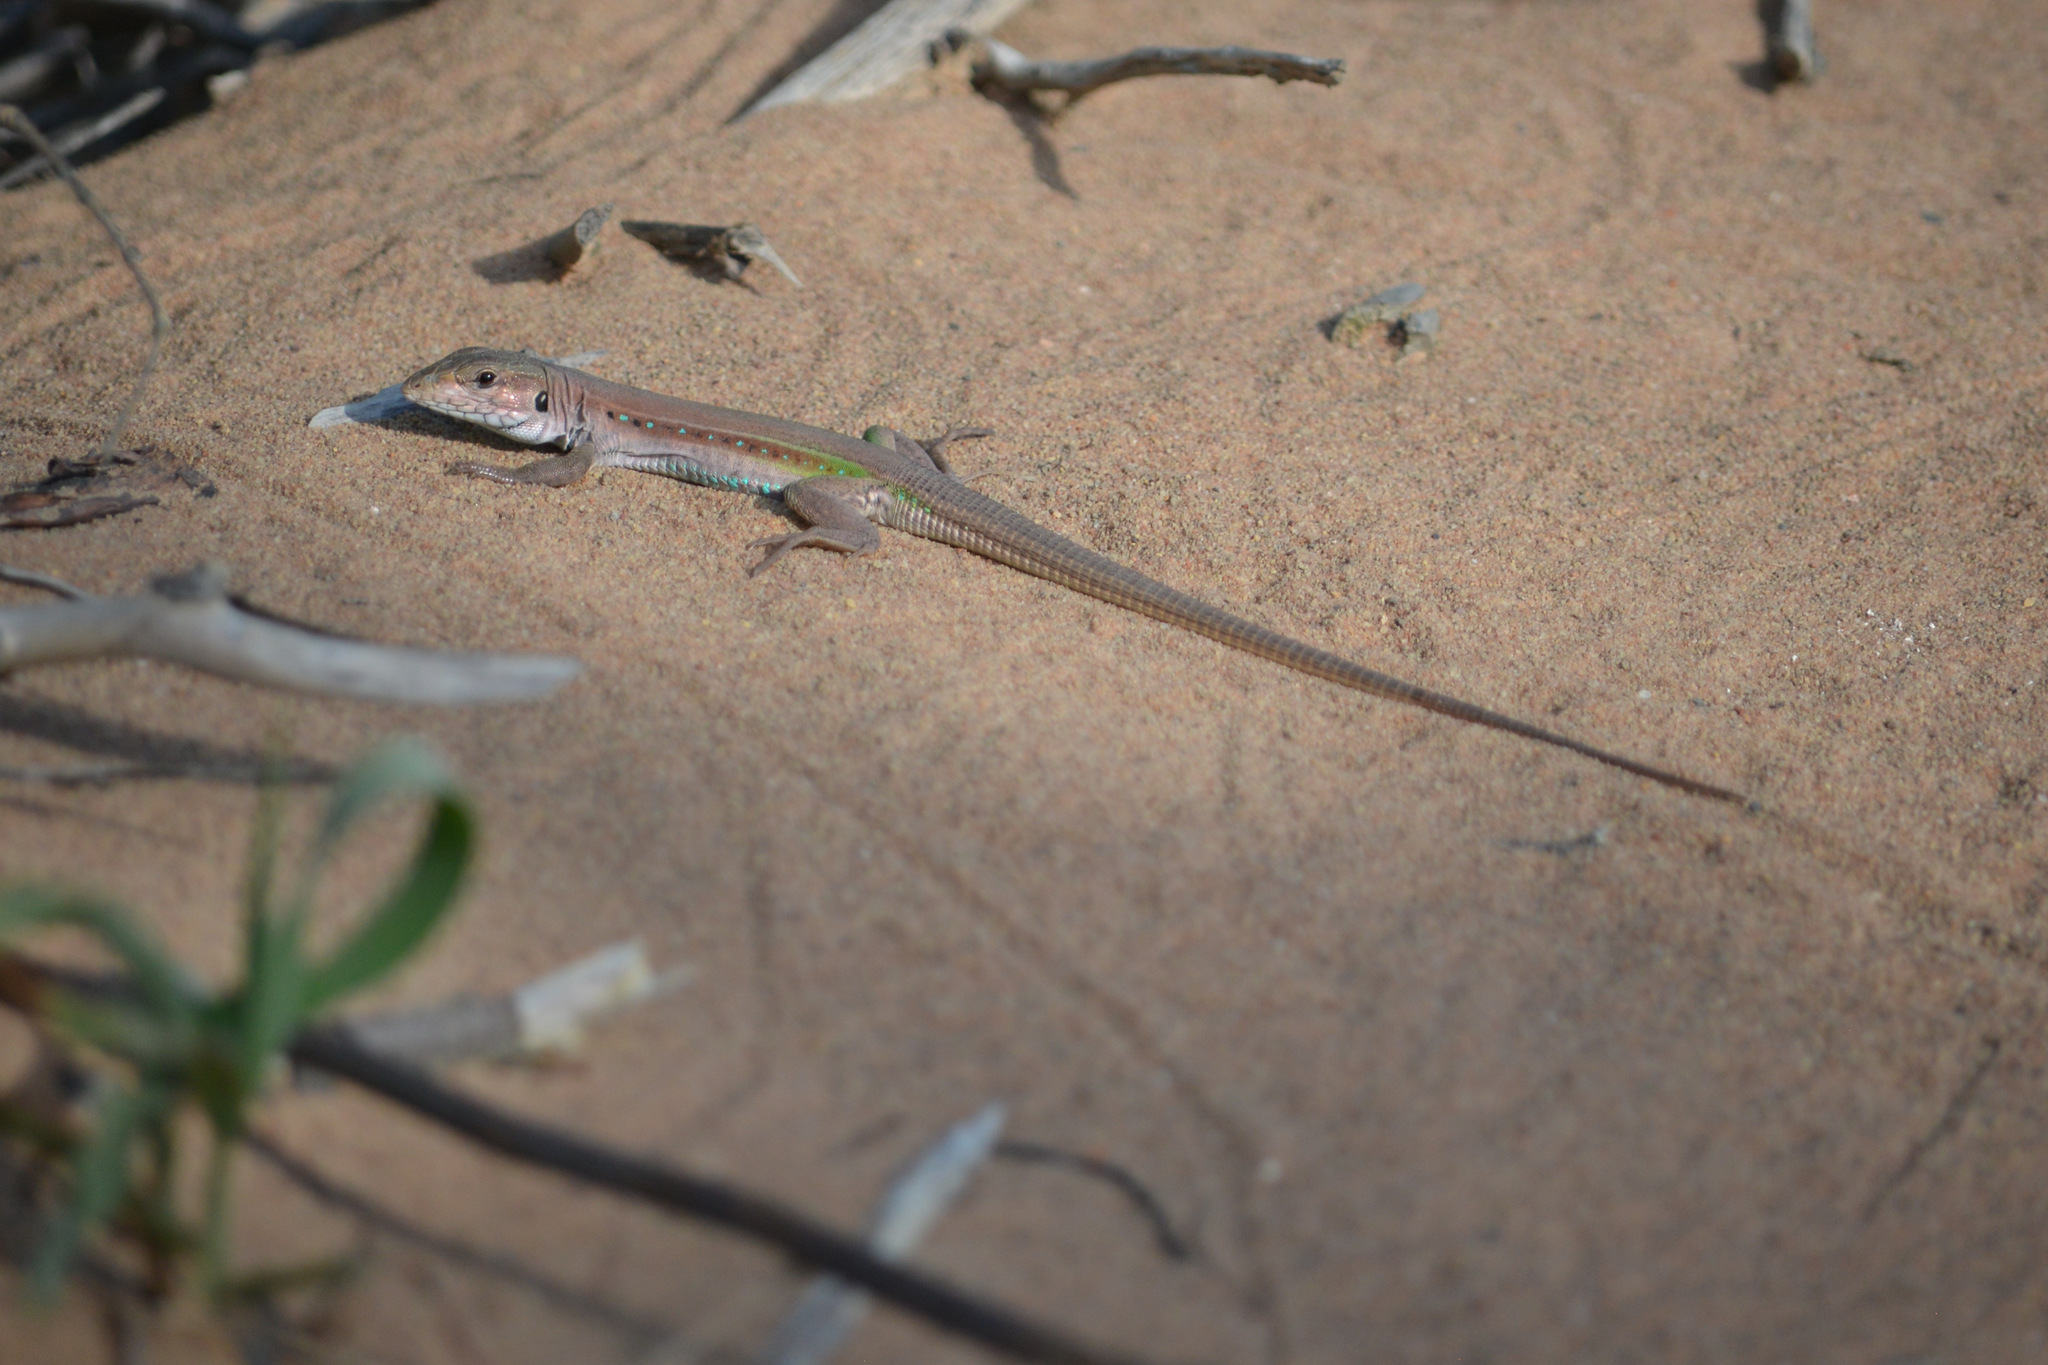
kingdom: Animalia
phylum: Chordata
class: Squamata
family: Teiidae
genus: Ameivula
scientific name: Ameivula ocellifera
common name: Spix's whiptail
